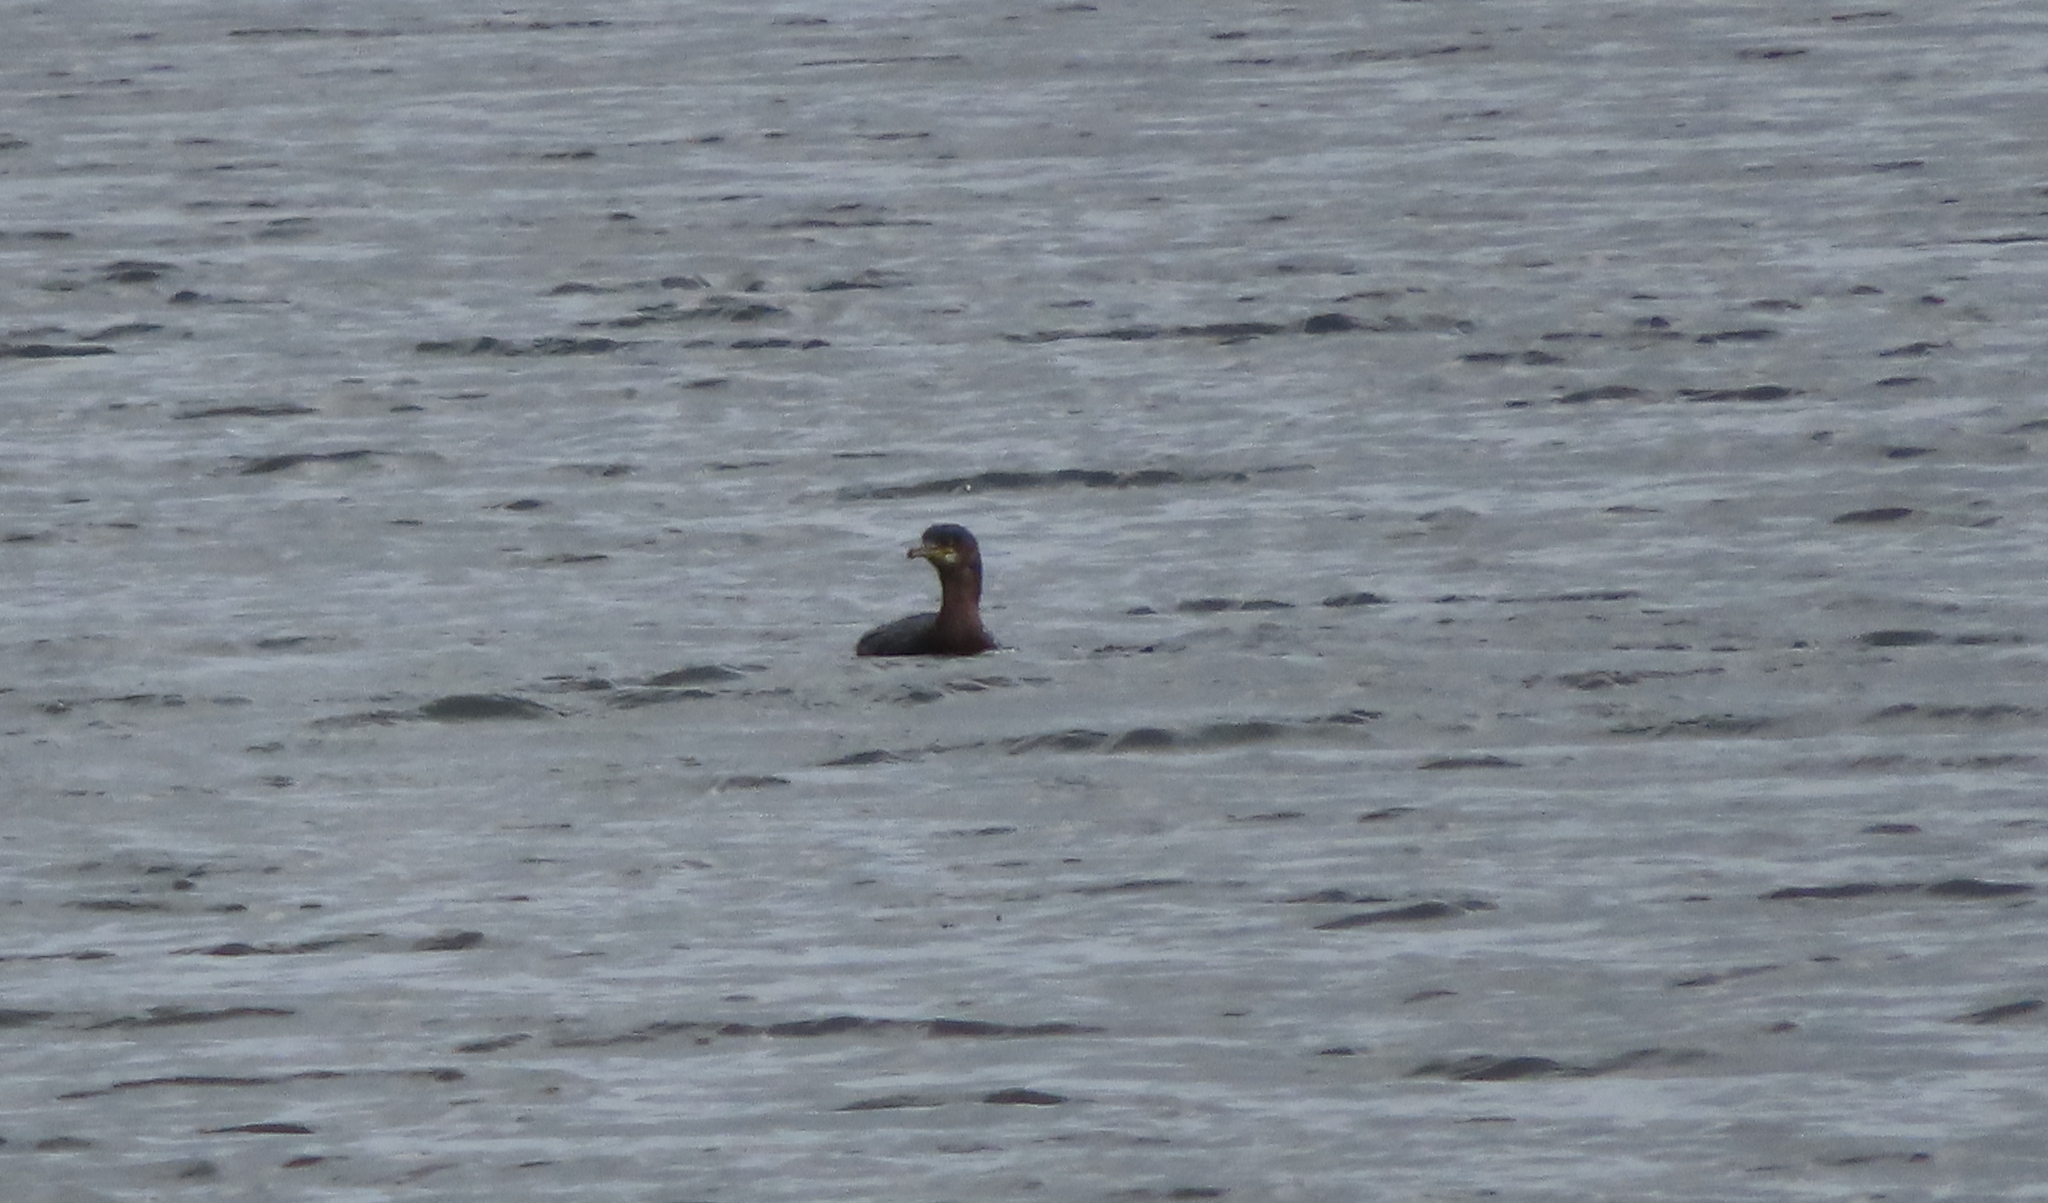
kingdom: Animalia
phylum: Chordata
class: Aves
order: Suliformes
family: Phalacrocoracidae
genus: Phalacrocorax
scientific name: Phalacrocorax aristotelis
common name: European shag
